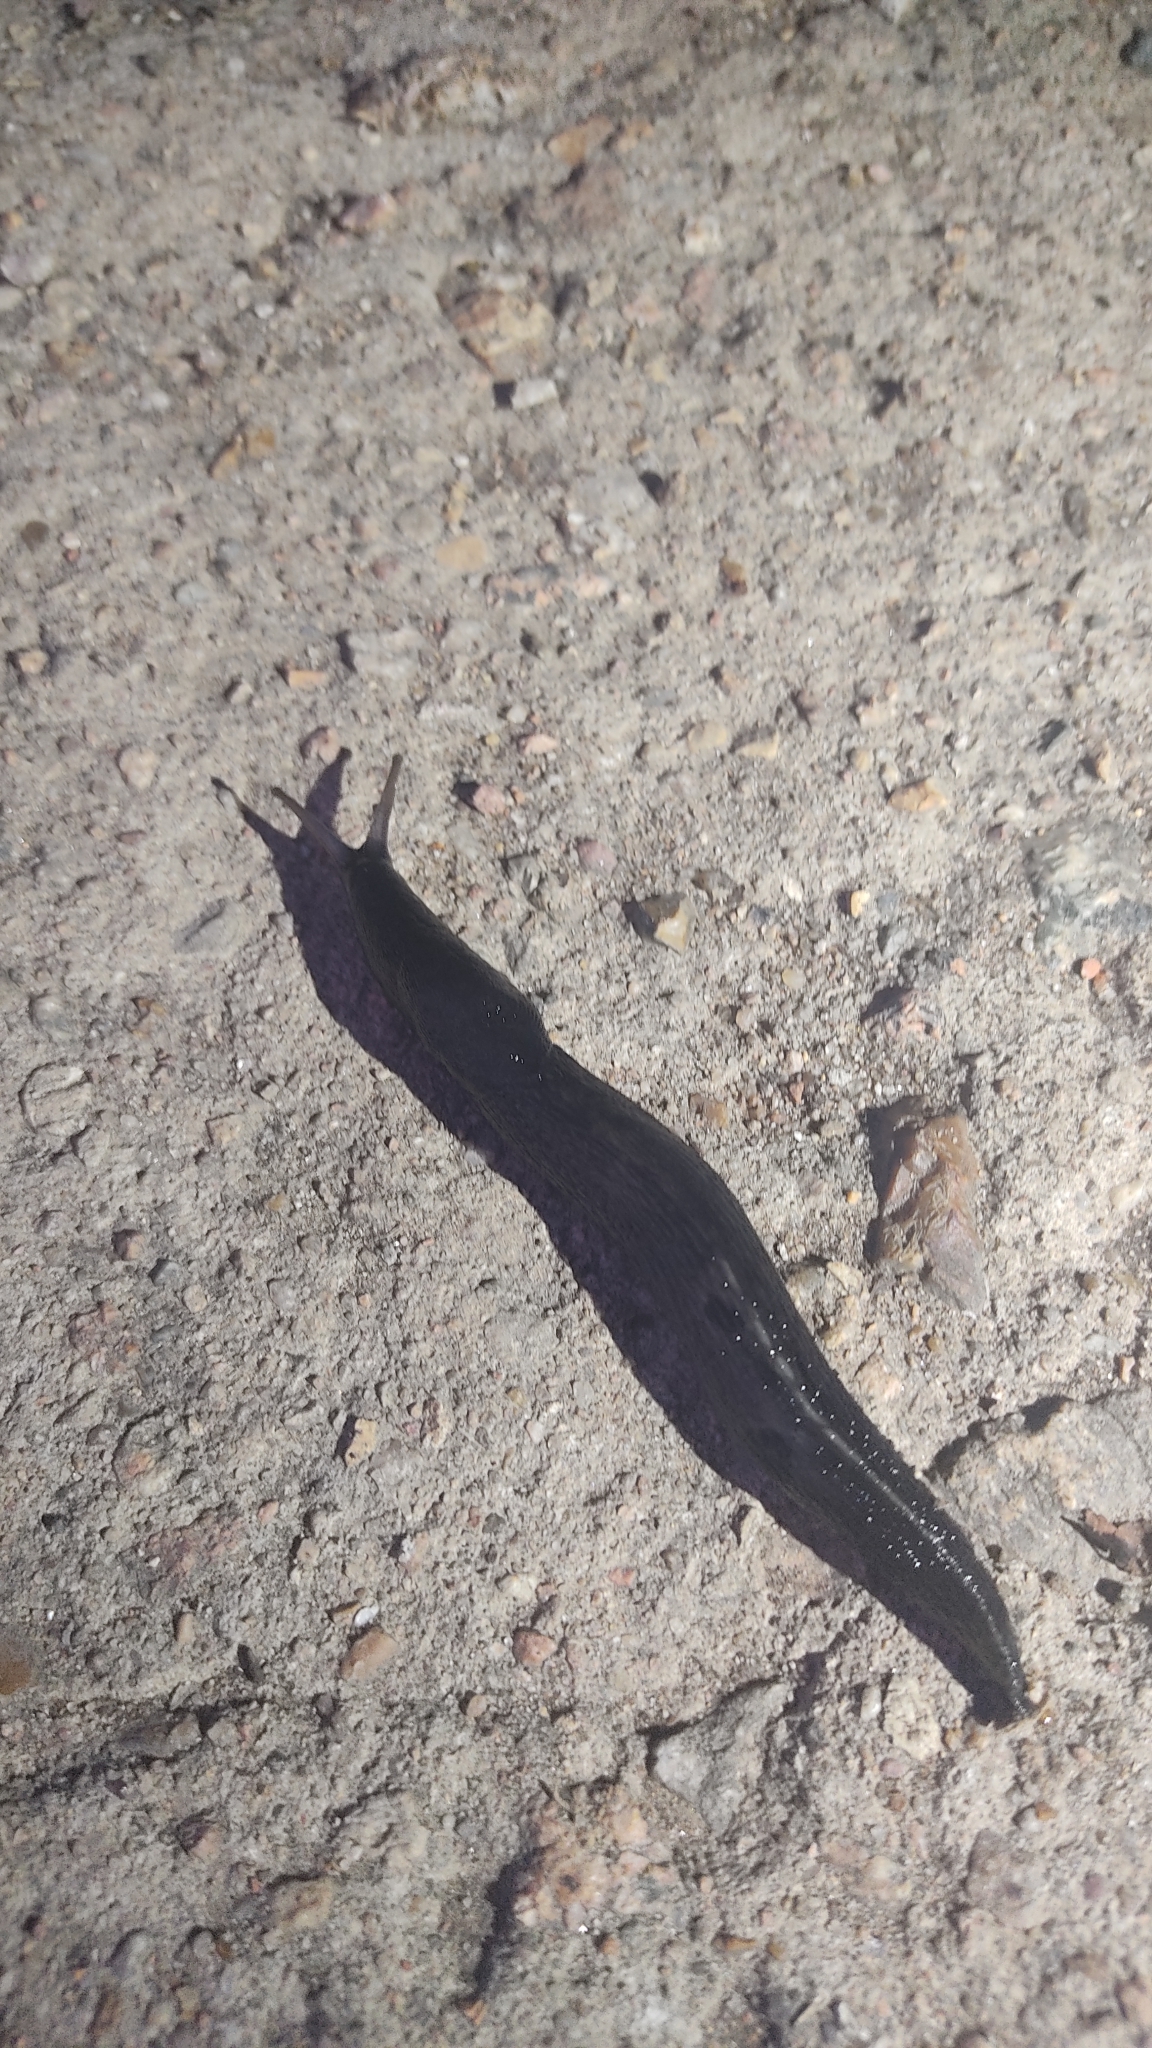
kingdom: Animalia
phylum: Mollusca
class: Gastropoda
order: Stylommatophora
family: Limacidae
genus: Limax
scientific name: Limax cinereoniger
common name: Ash-black slug
